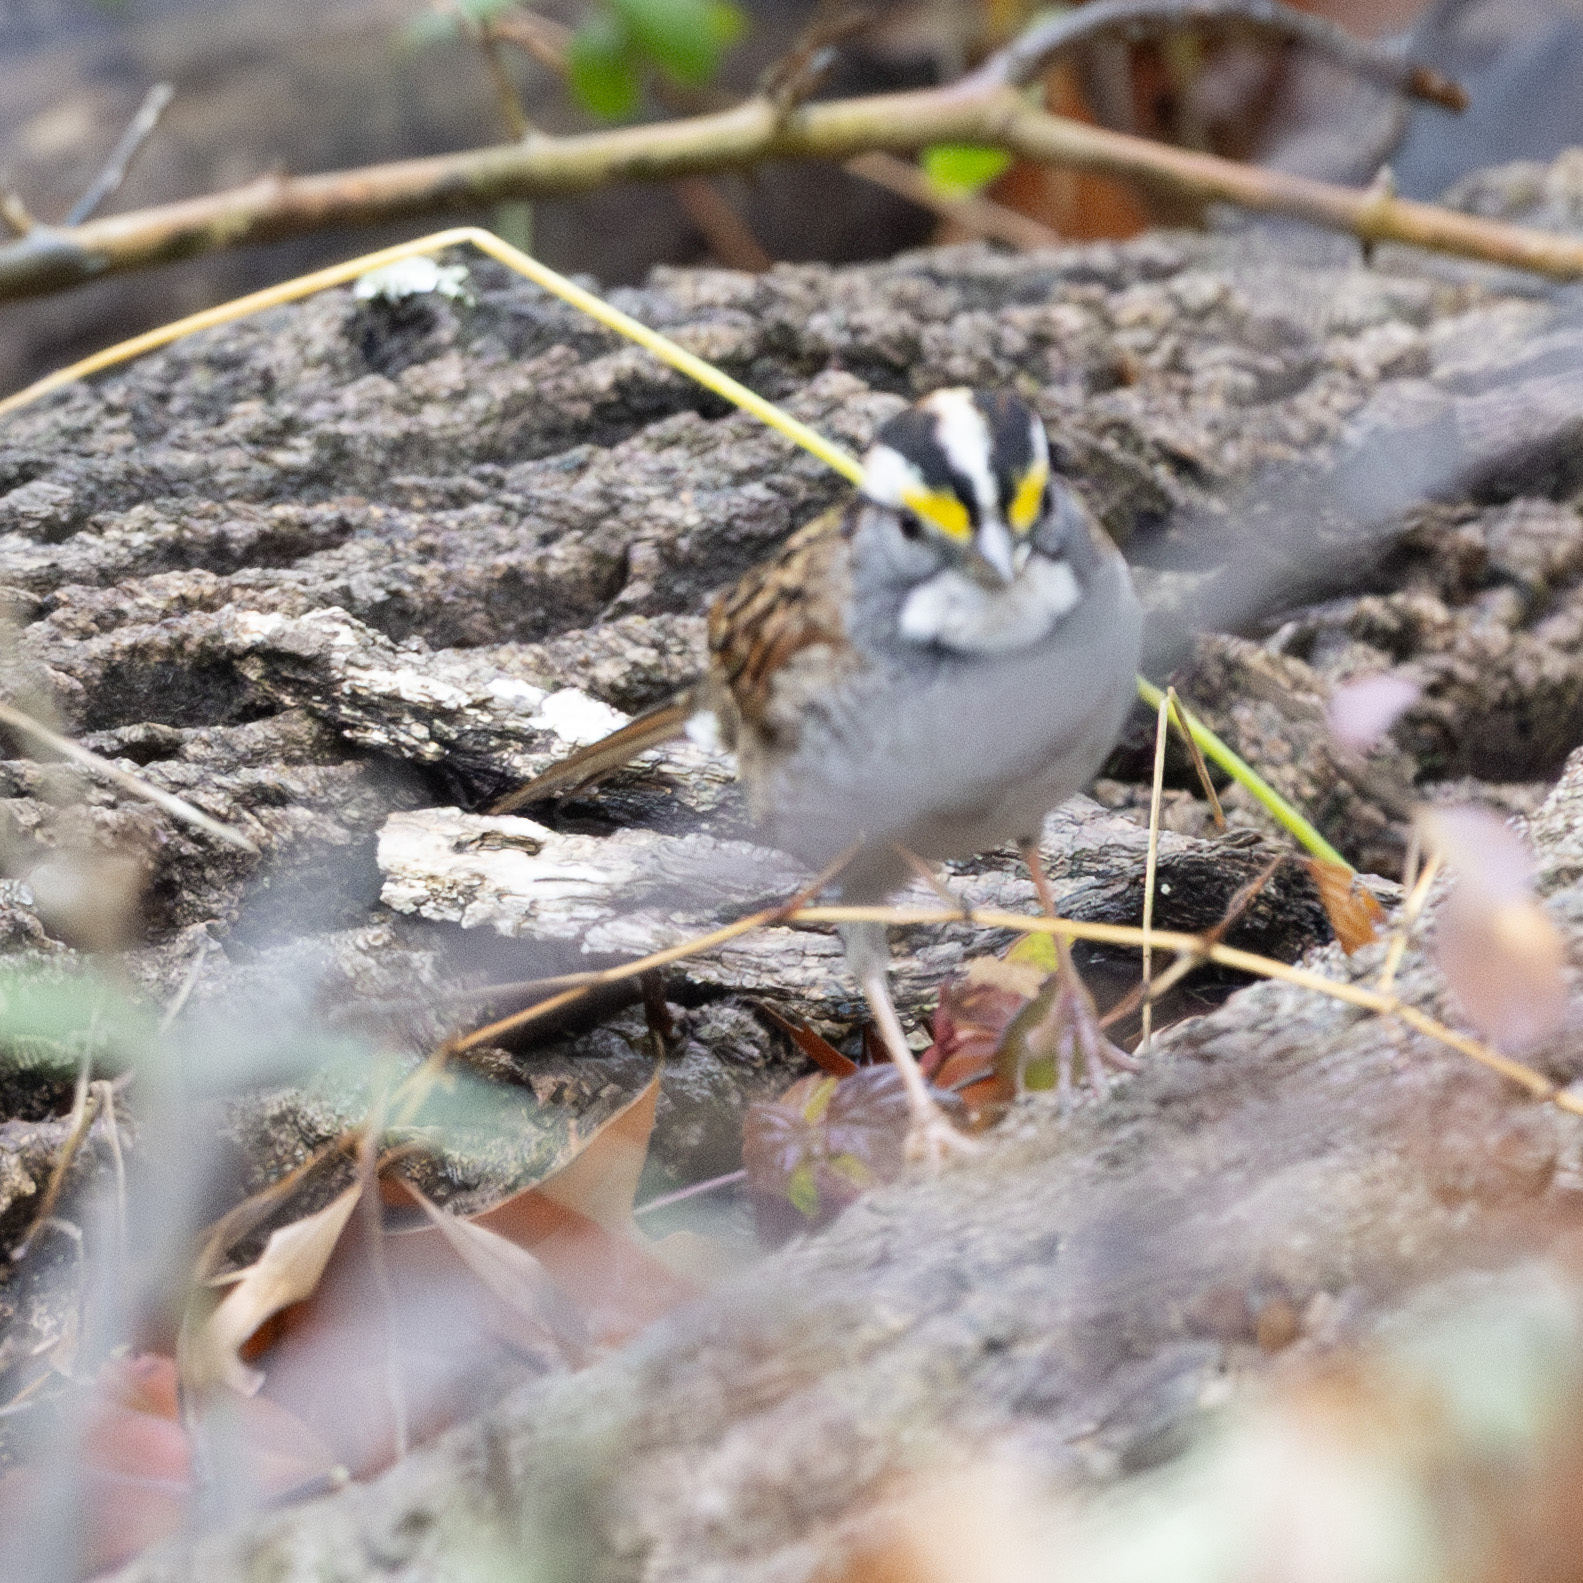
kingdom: Animalia
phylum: Chordata
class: Aves
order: Passeriformes
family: Passerellidae
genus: Zonotrichia
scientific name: Zonotrichia albicollis
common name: White-throated sparrow
